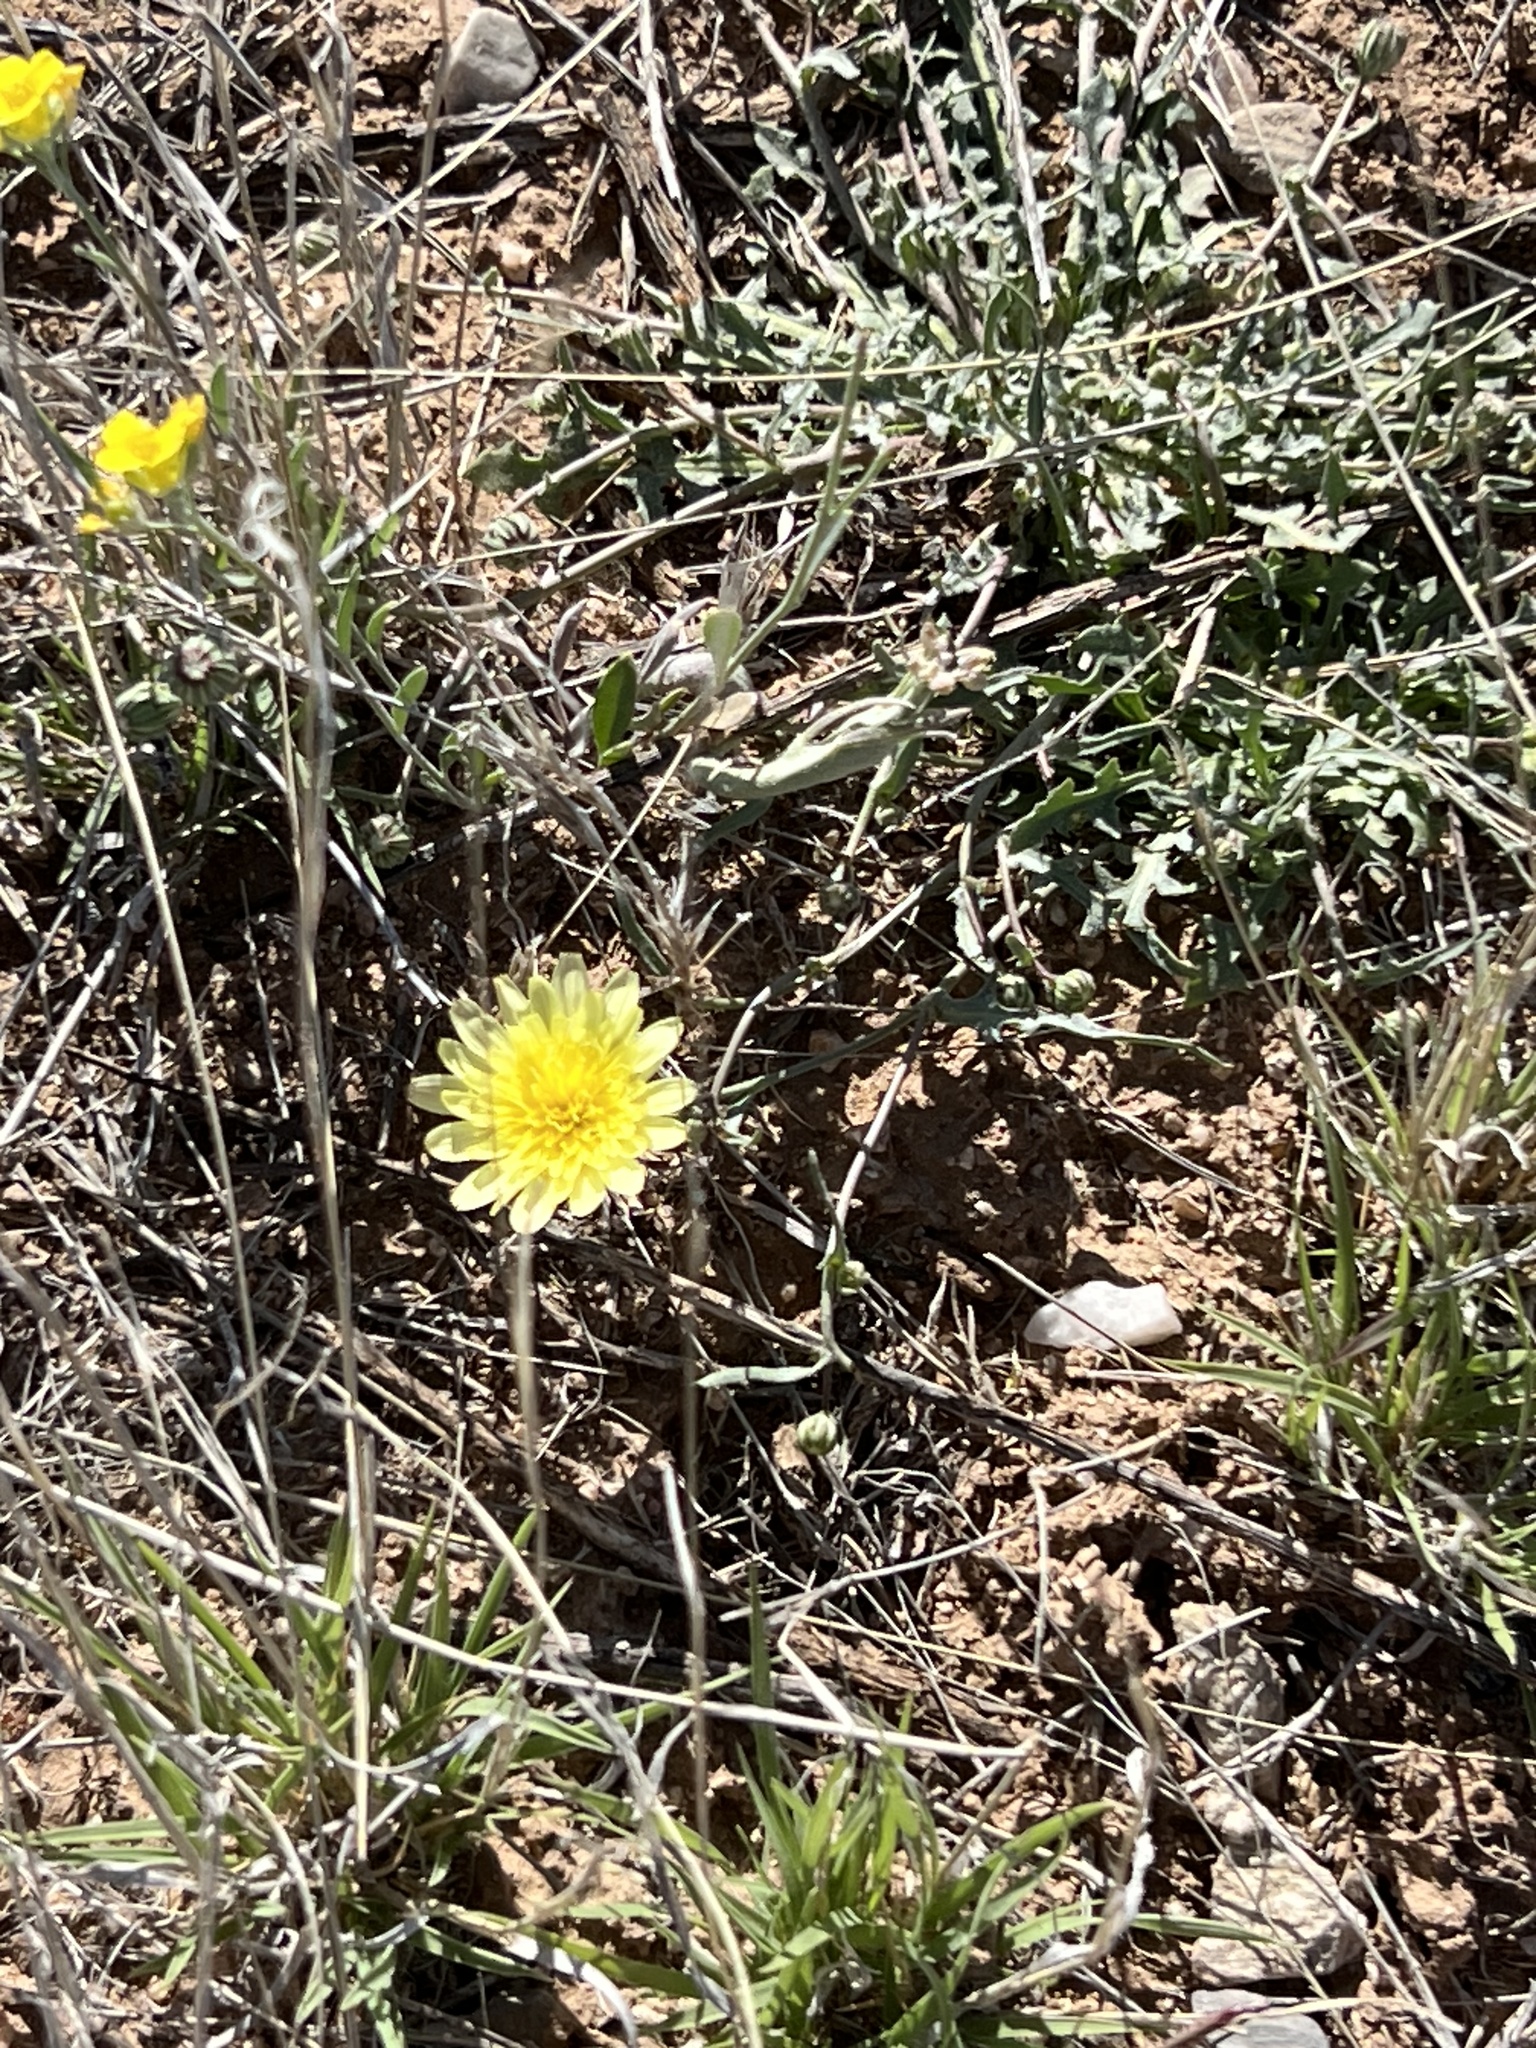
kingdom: Plantae
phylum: Tracheophyta
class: Magnoliopsida
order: Asterales
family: Asteraceae
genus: Malacothrix
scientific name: Malacothrix fendleri
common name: Fendler's desert-dandelion
